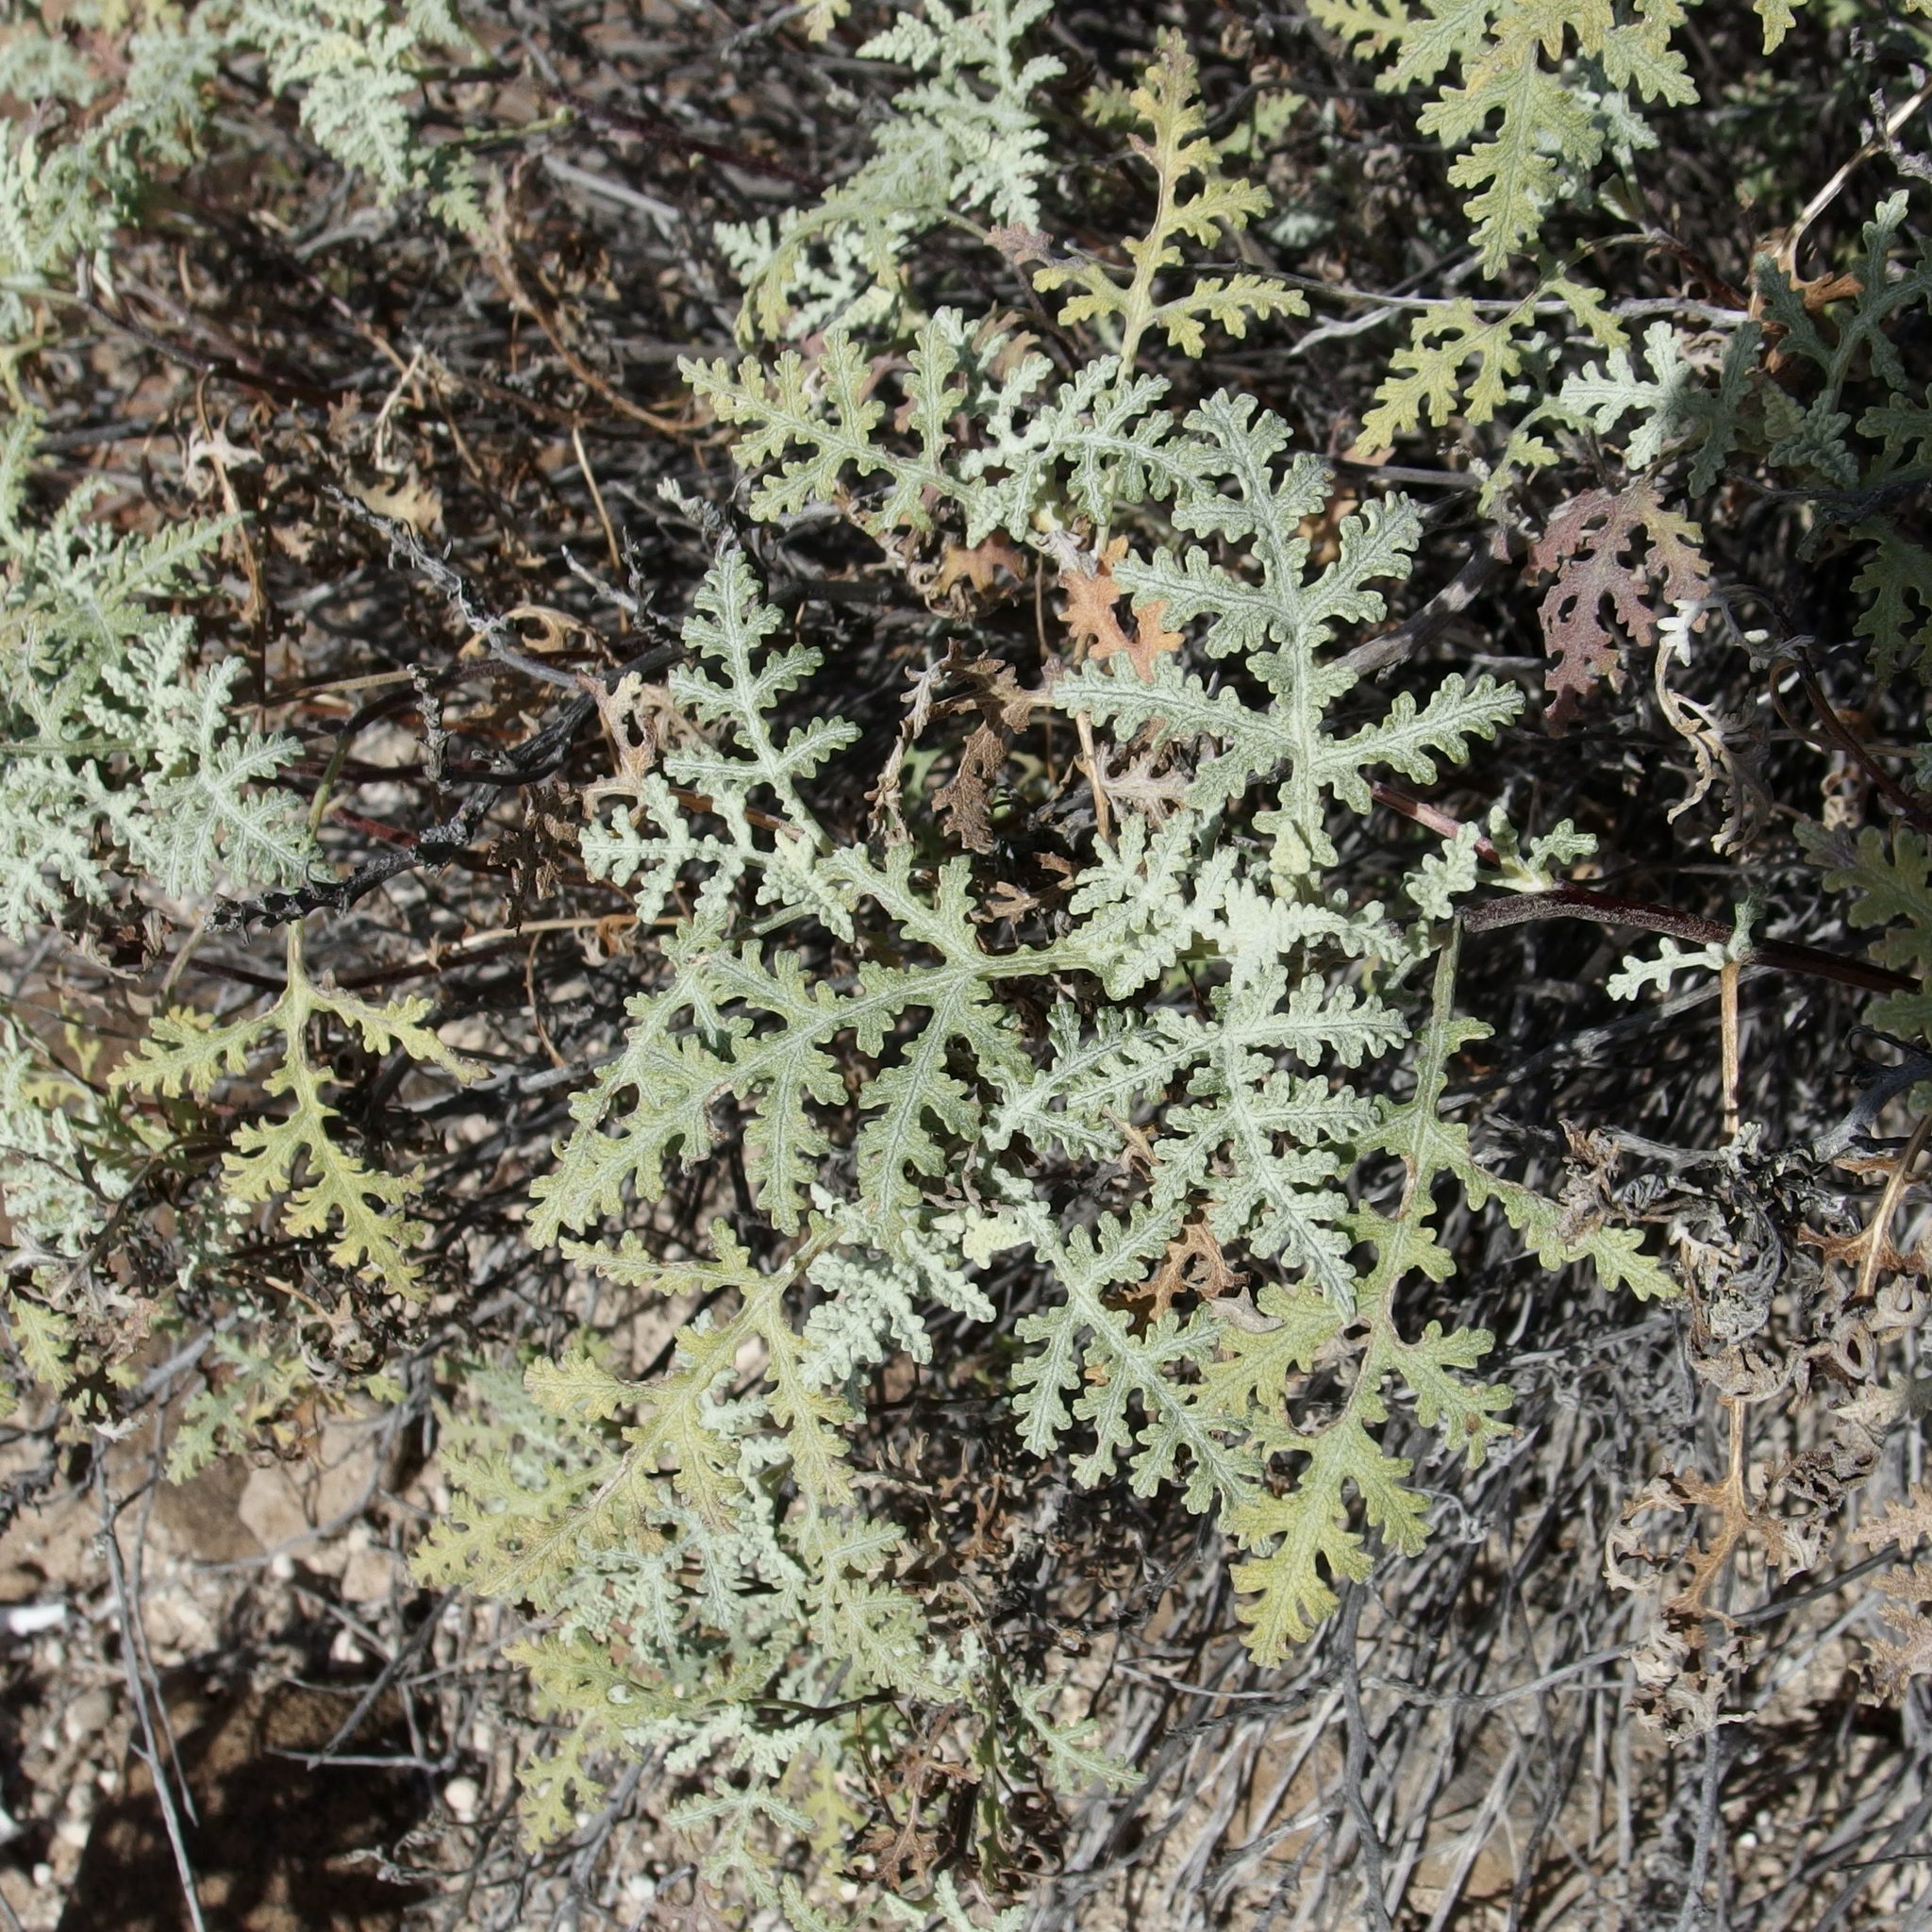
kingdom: Plantae
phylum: Tracheophyta
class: Magnoliopsida
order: Asterales
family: Asteraceae
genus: Ambrosia
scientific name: Ambrosia camphorata
